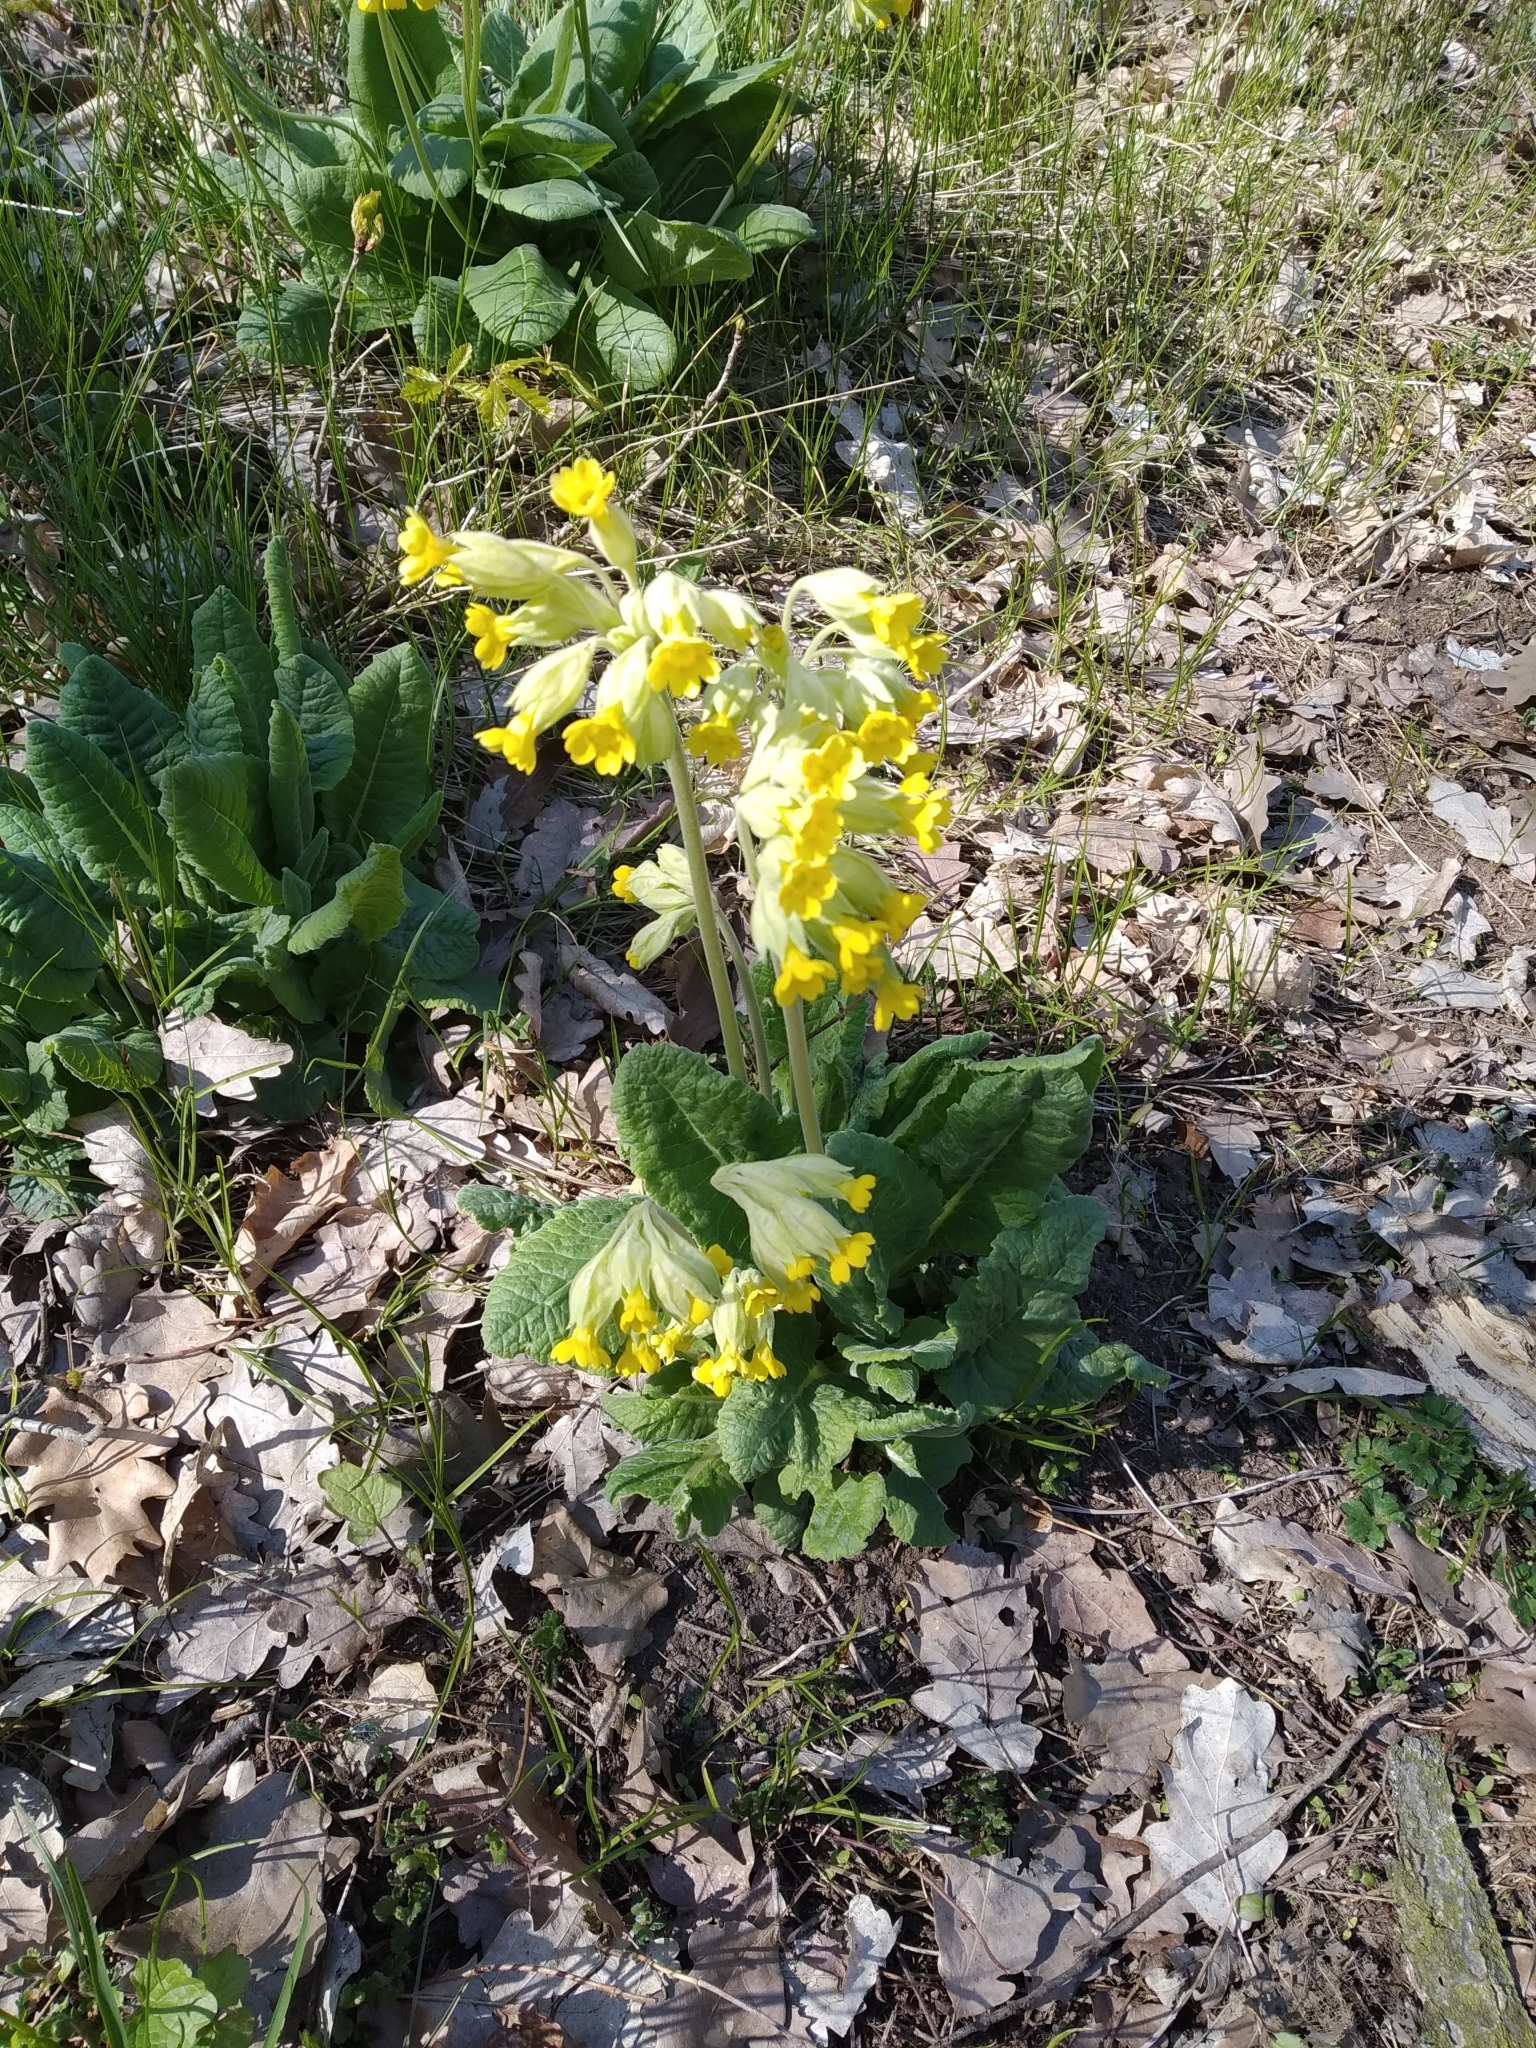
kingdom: Plantae
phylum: Tracheophyta
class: Magnoliopsida
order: Ericales
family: Primulaceae
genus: Primula
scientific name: Primula veris
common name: Cowslip
